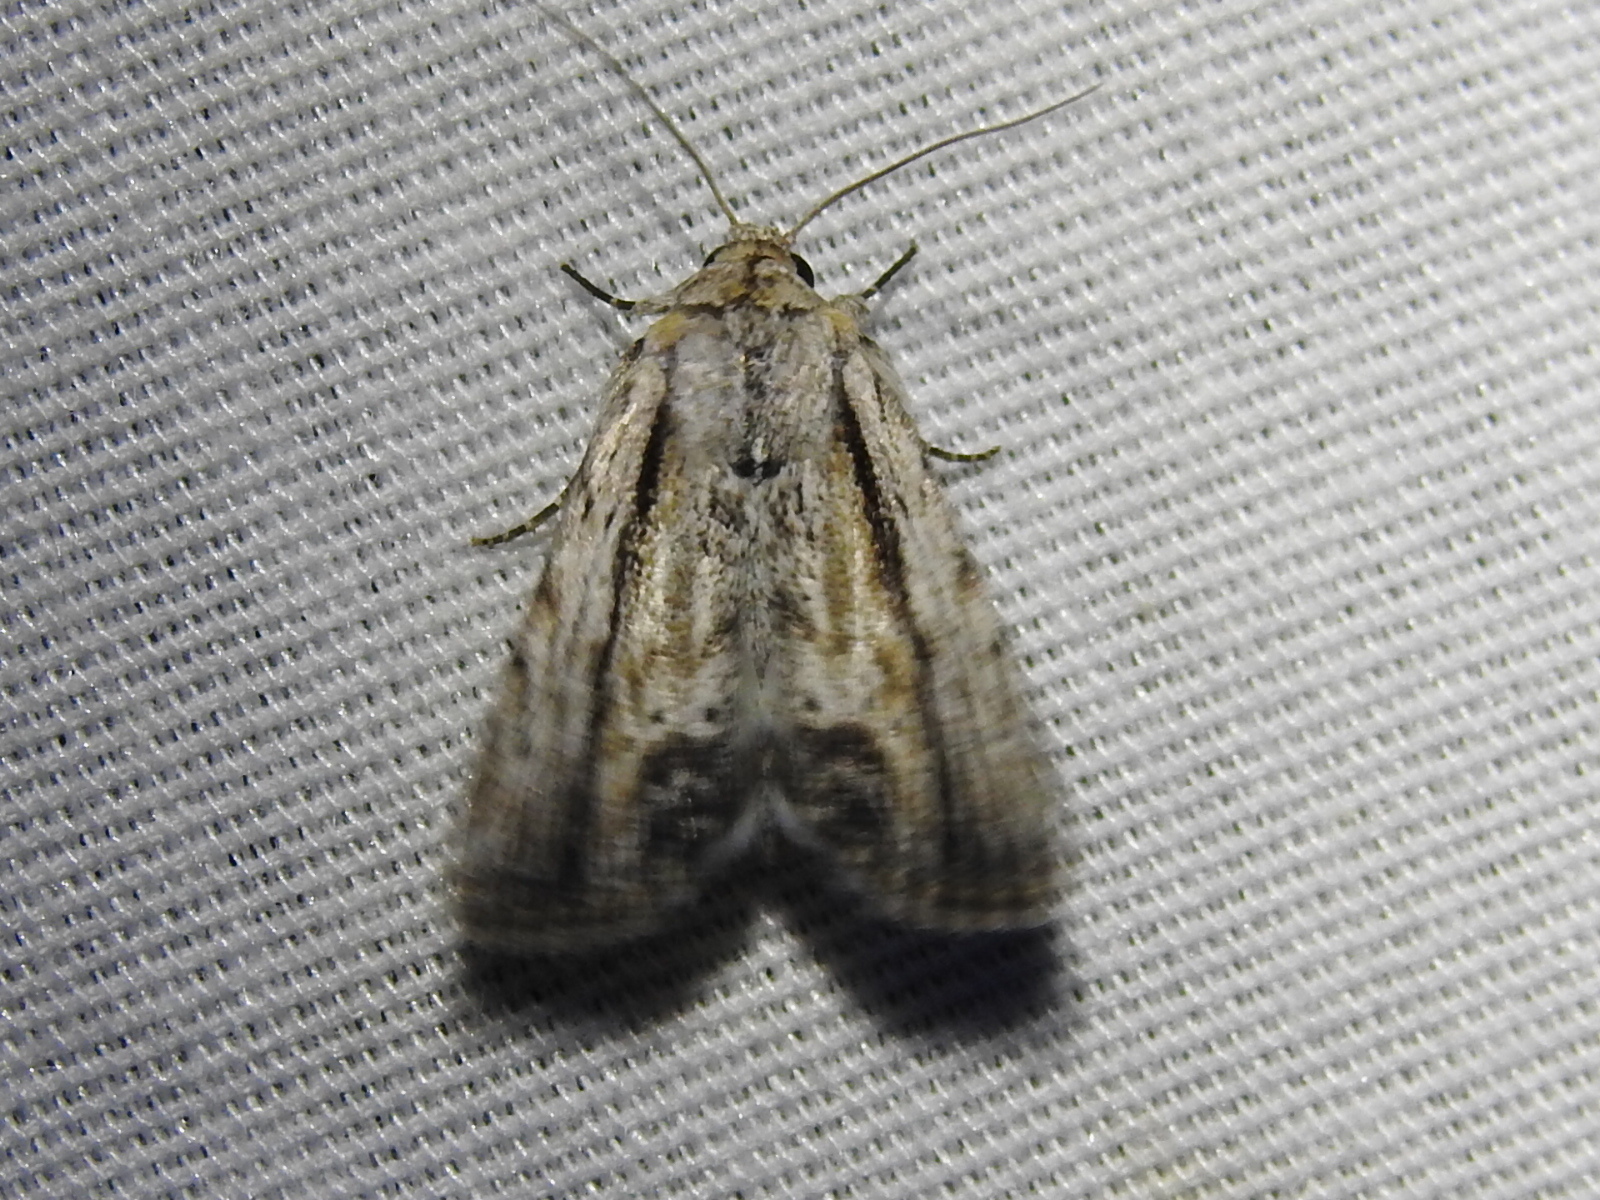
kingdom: Animalia
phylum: Arthropoda
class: Insecta
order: Lepidoptera
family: Noctuidae
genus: Catabenoides
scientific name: Catabenoides terminellus
